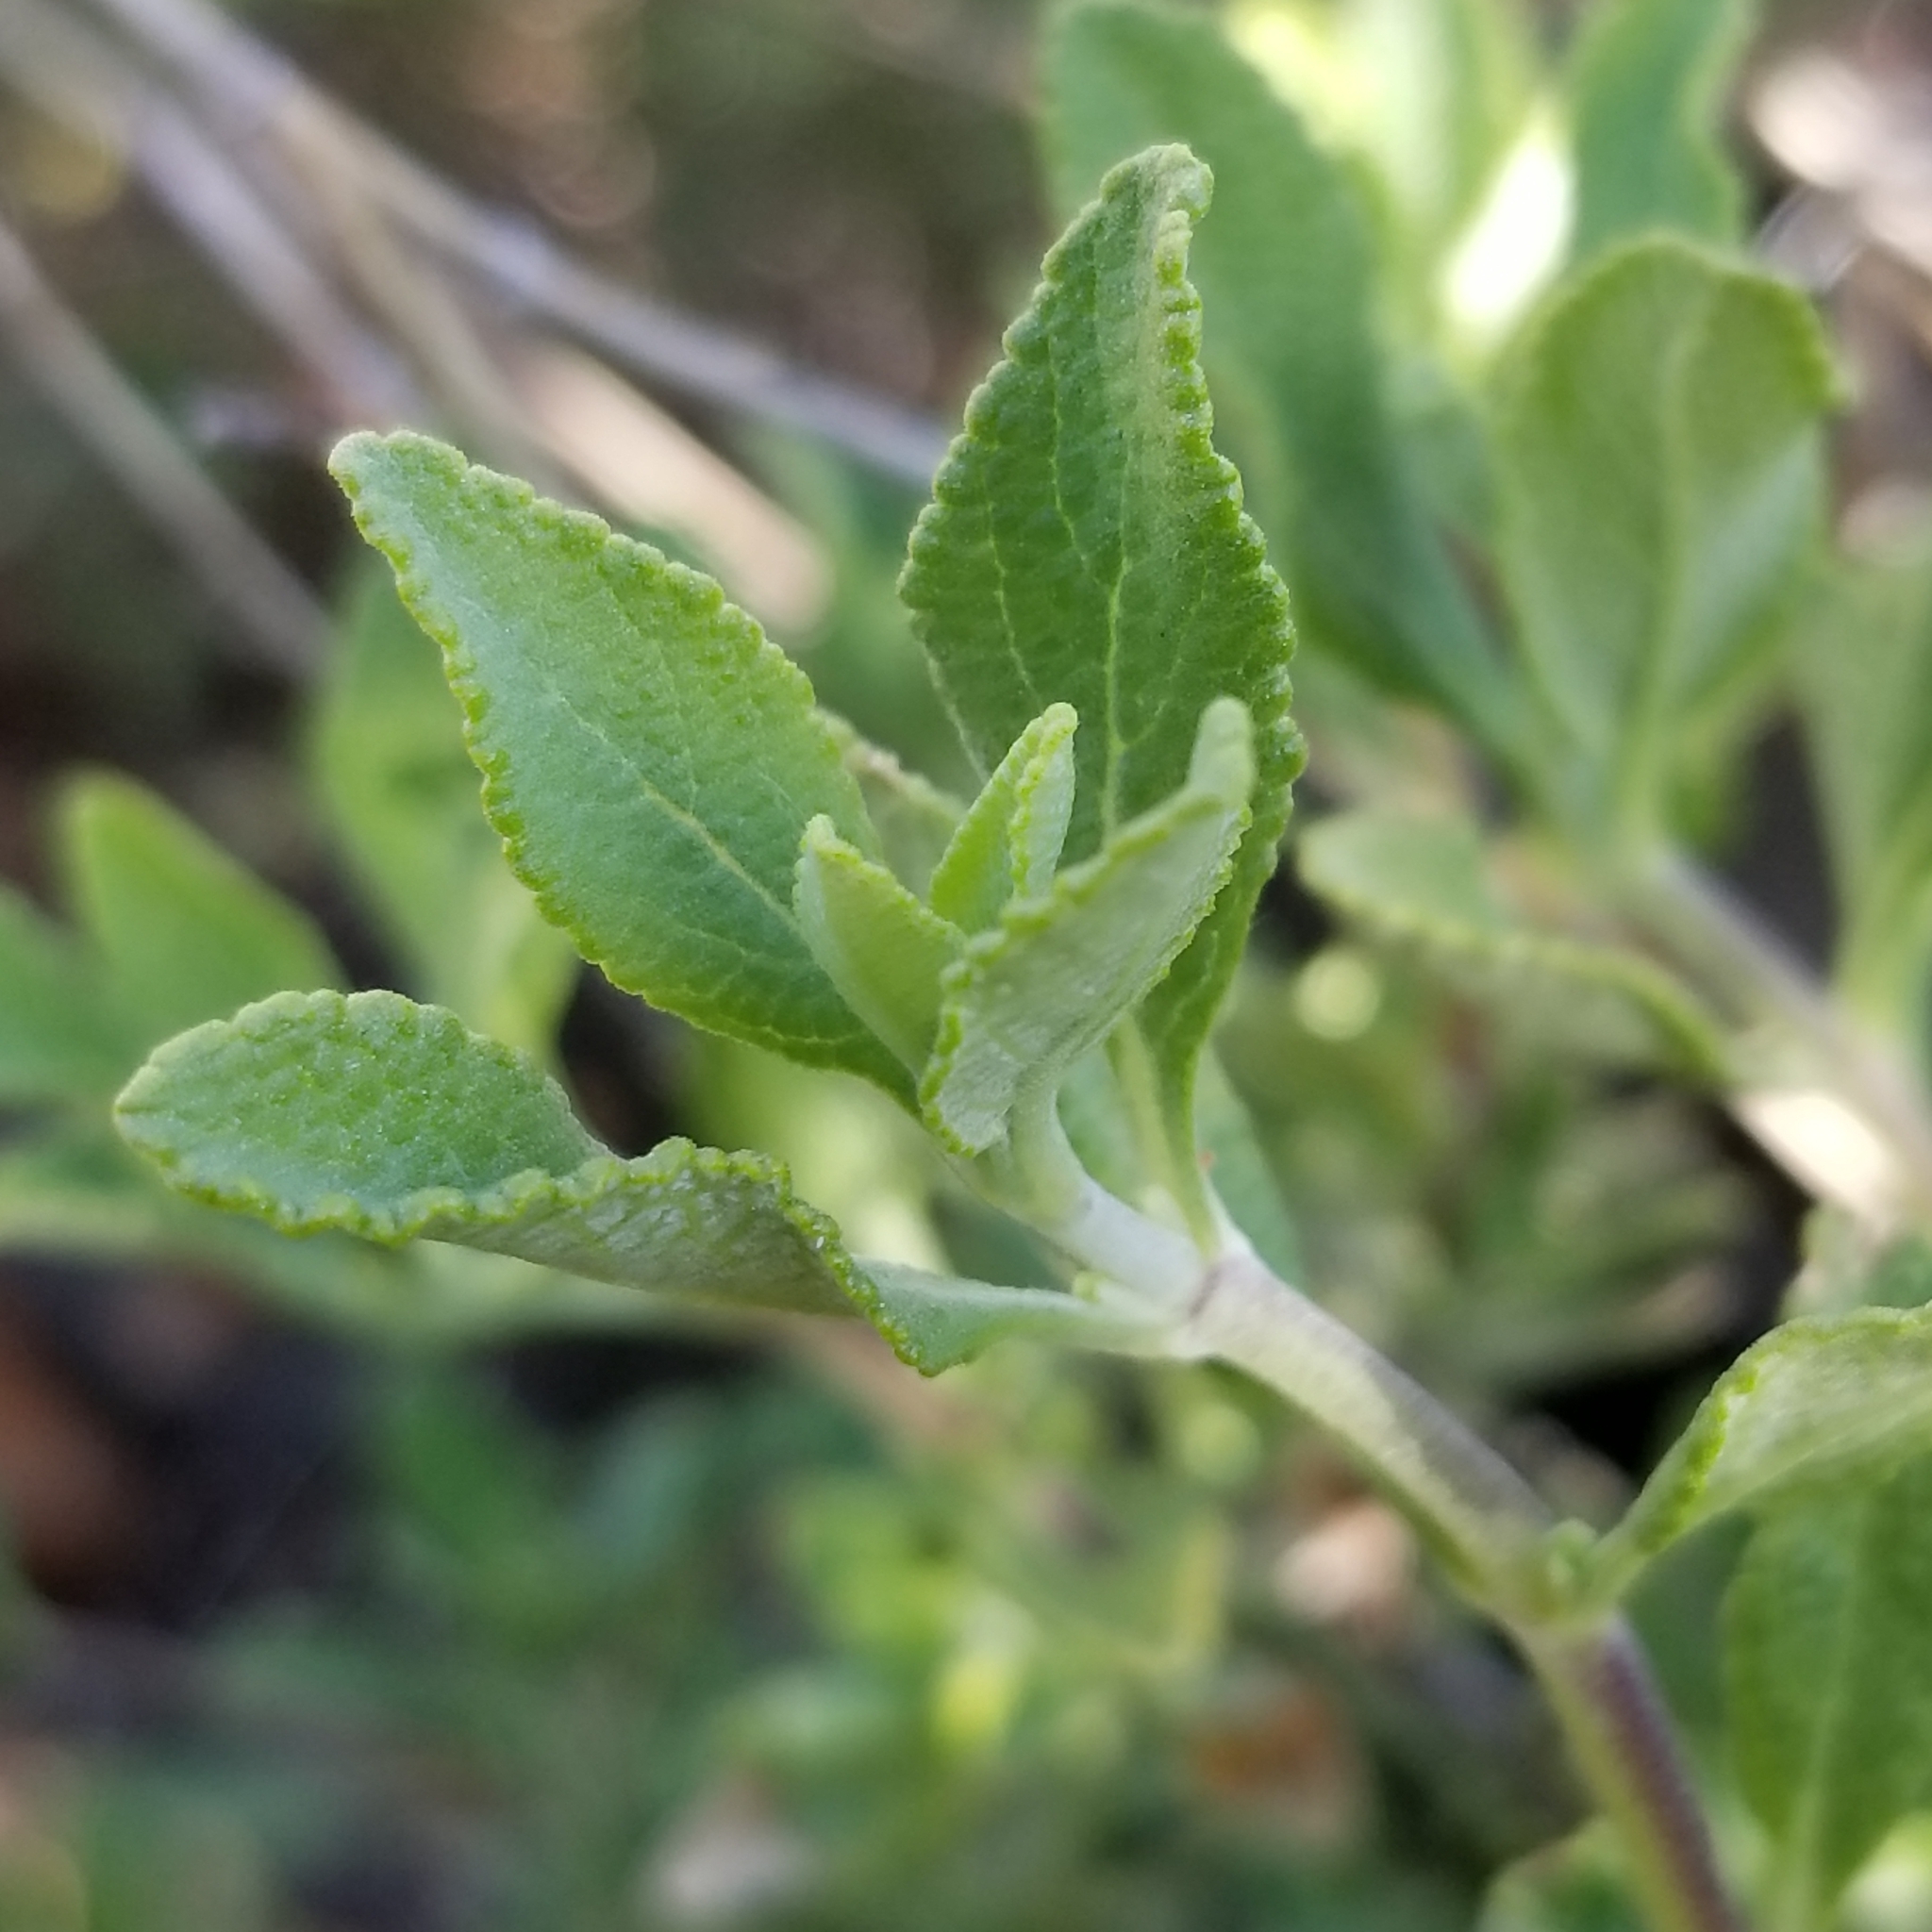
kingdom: Plantae
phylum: Tracheophyta
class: Magnoliopsida
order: Lamiales
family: Lamiaceae
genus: Salvia
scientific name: Salvia clevelandii
